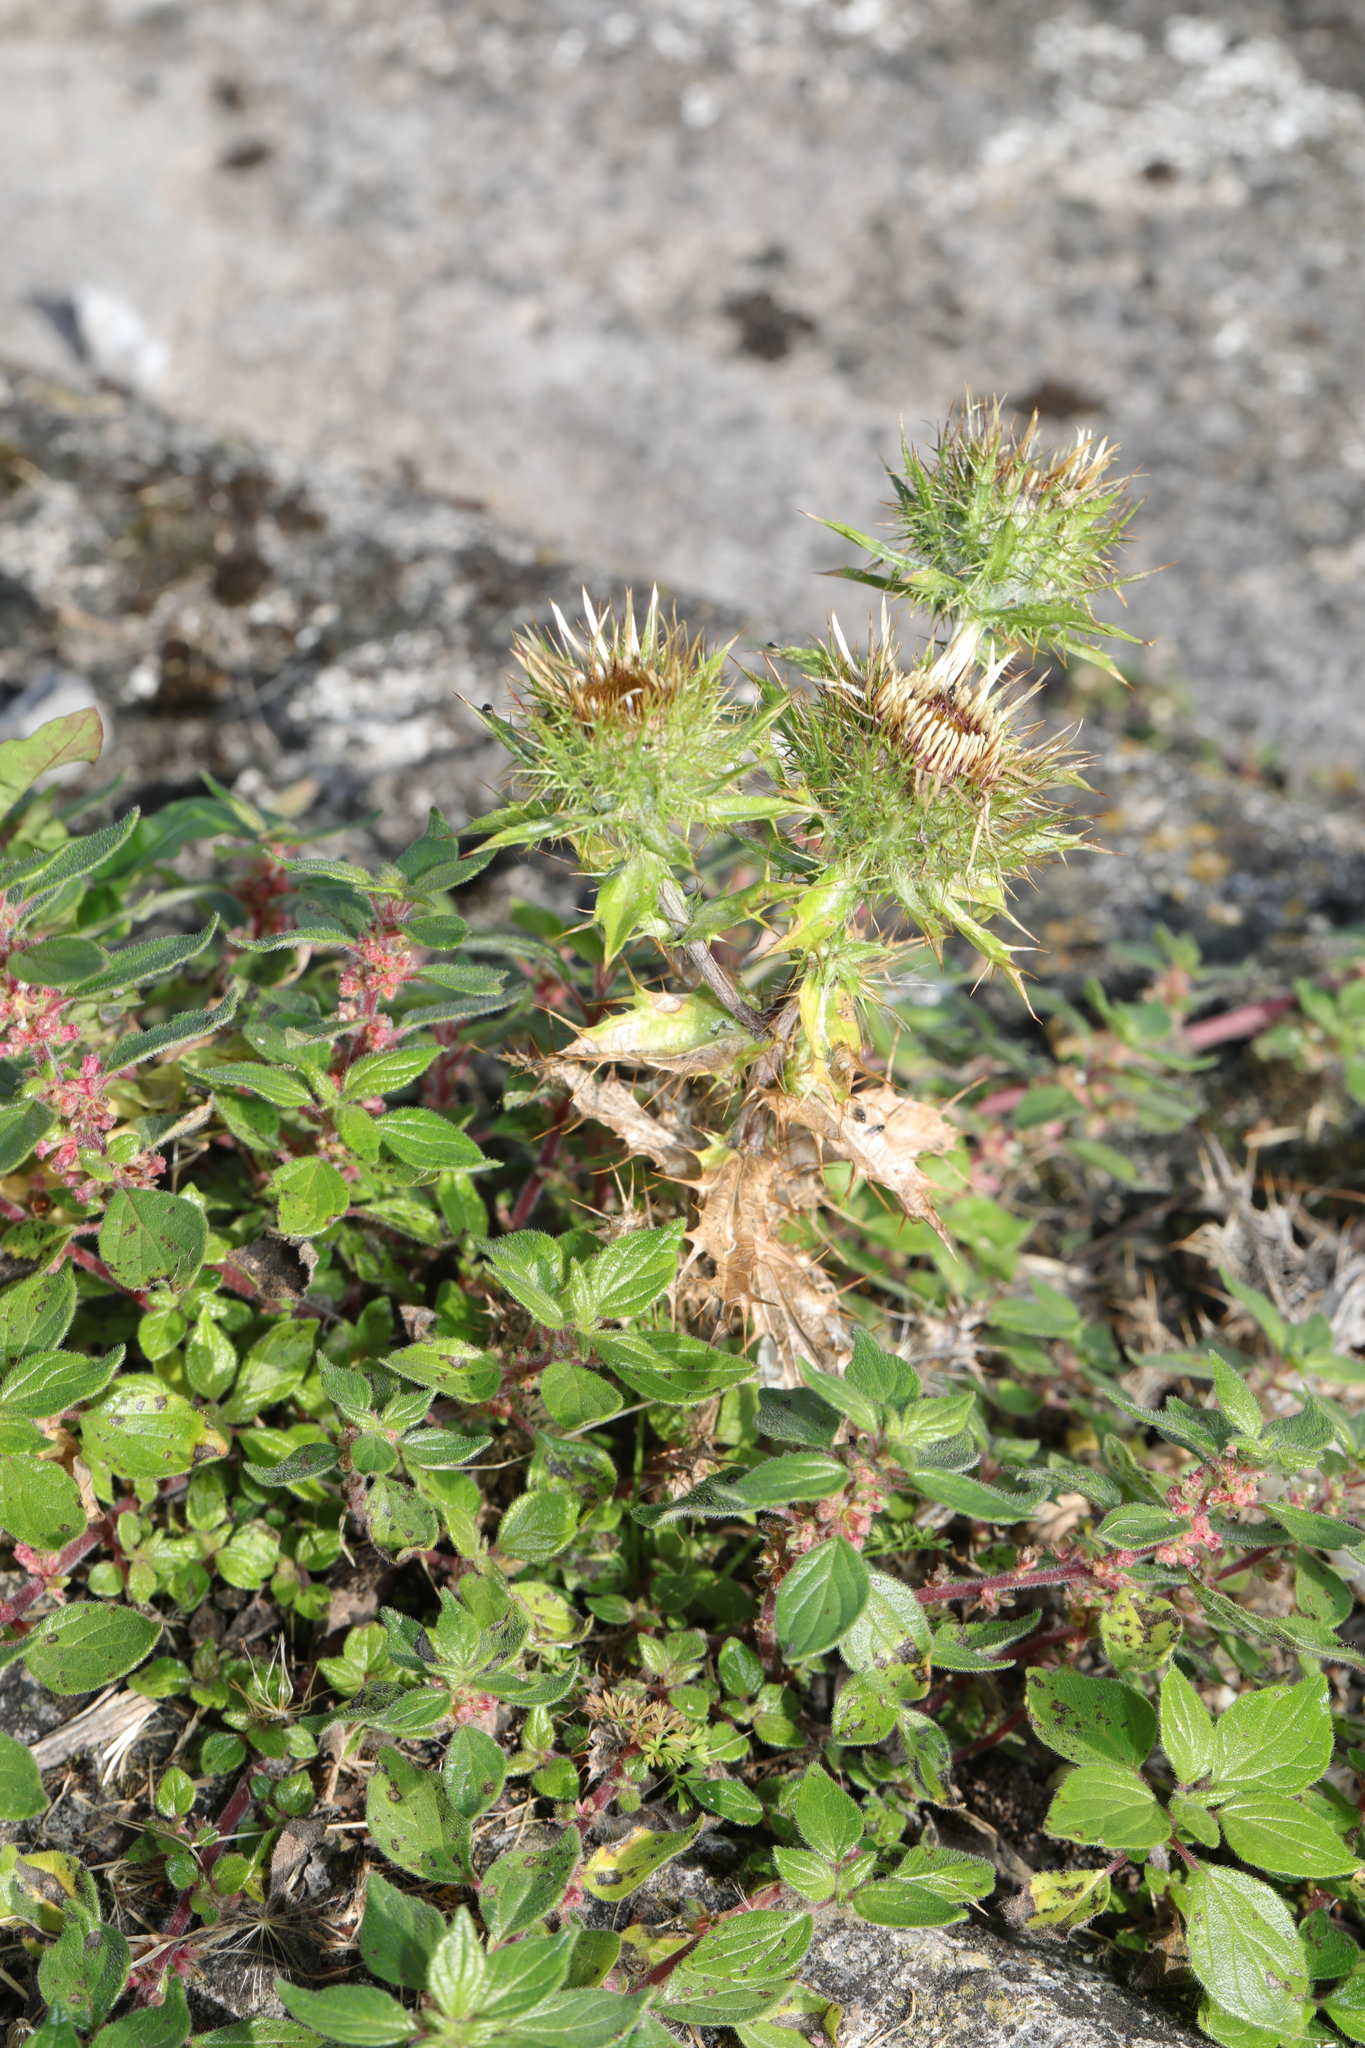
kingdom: Plantae
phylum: Tracheophyta
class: Magnoliopsida
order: Asterales
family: Asteraceae
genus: Carlina
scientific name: Carlina vulgaris
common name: Carline thistle
